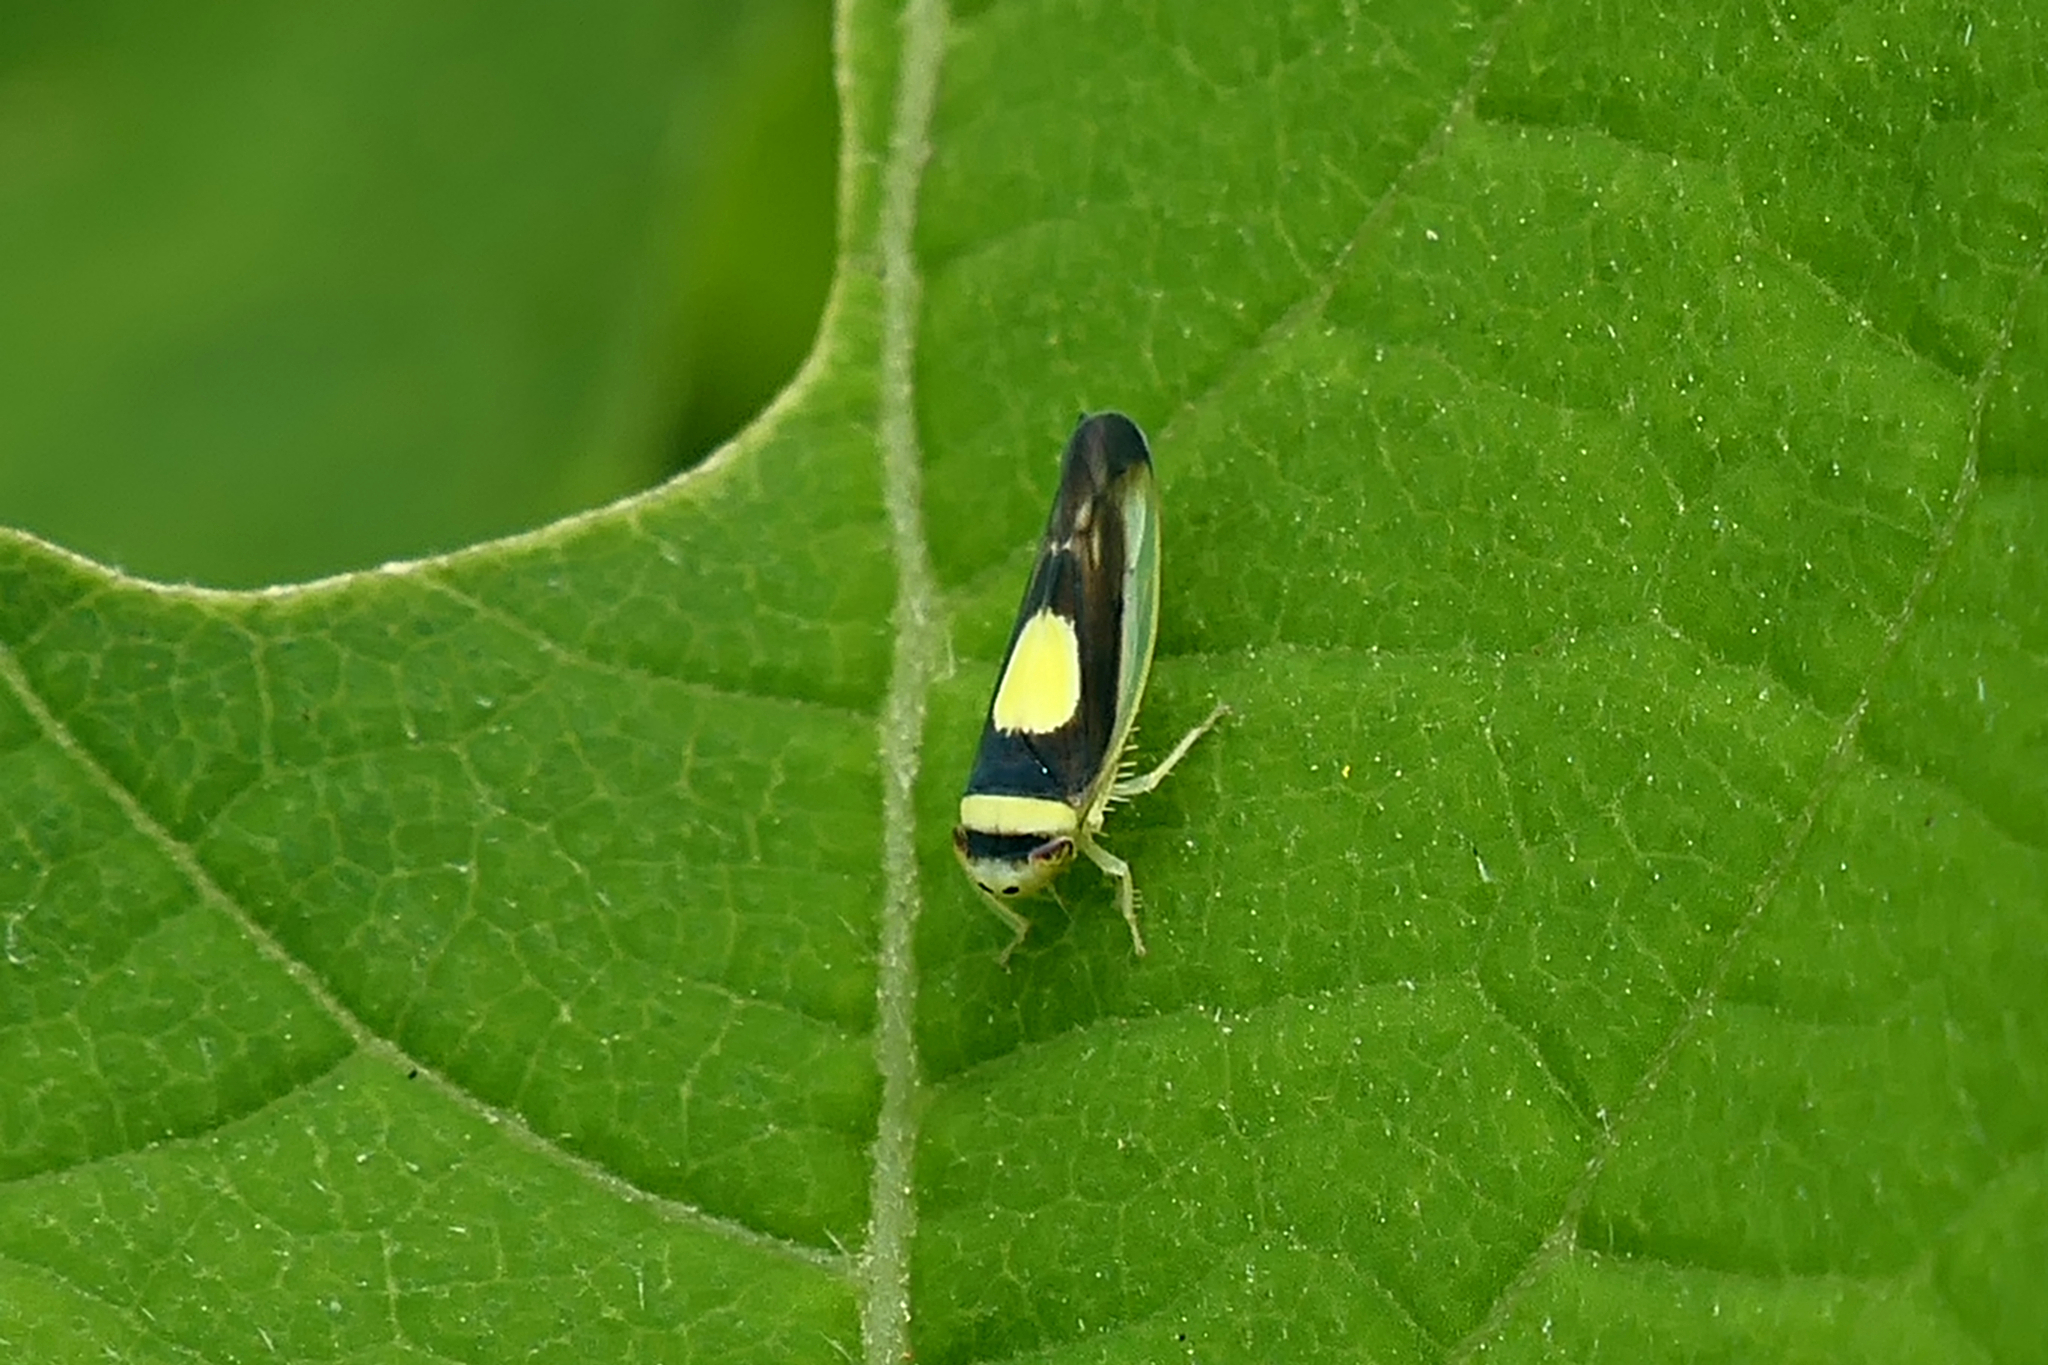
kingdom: Animalia
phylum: Arthropoda
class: Insecta
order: Hemiptera
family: Cicadellidae
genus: Colladonus
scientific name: Colladonus clitellarius
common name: The saddleback leafhopper
